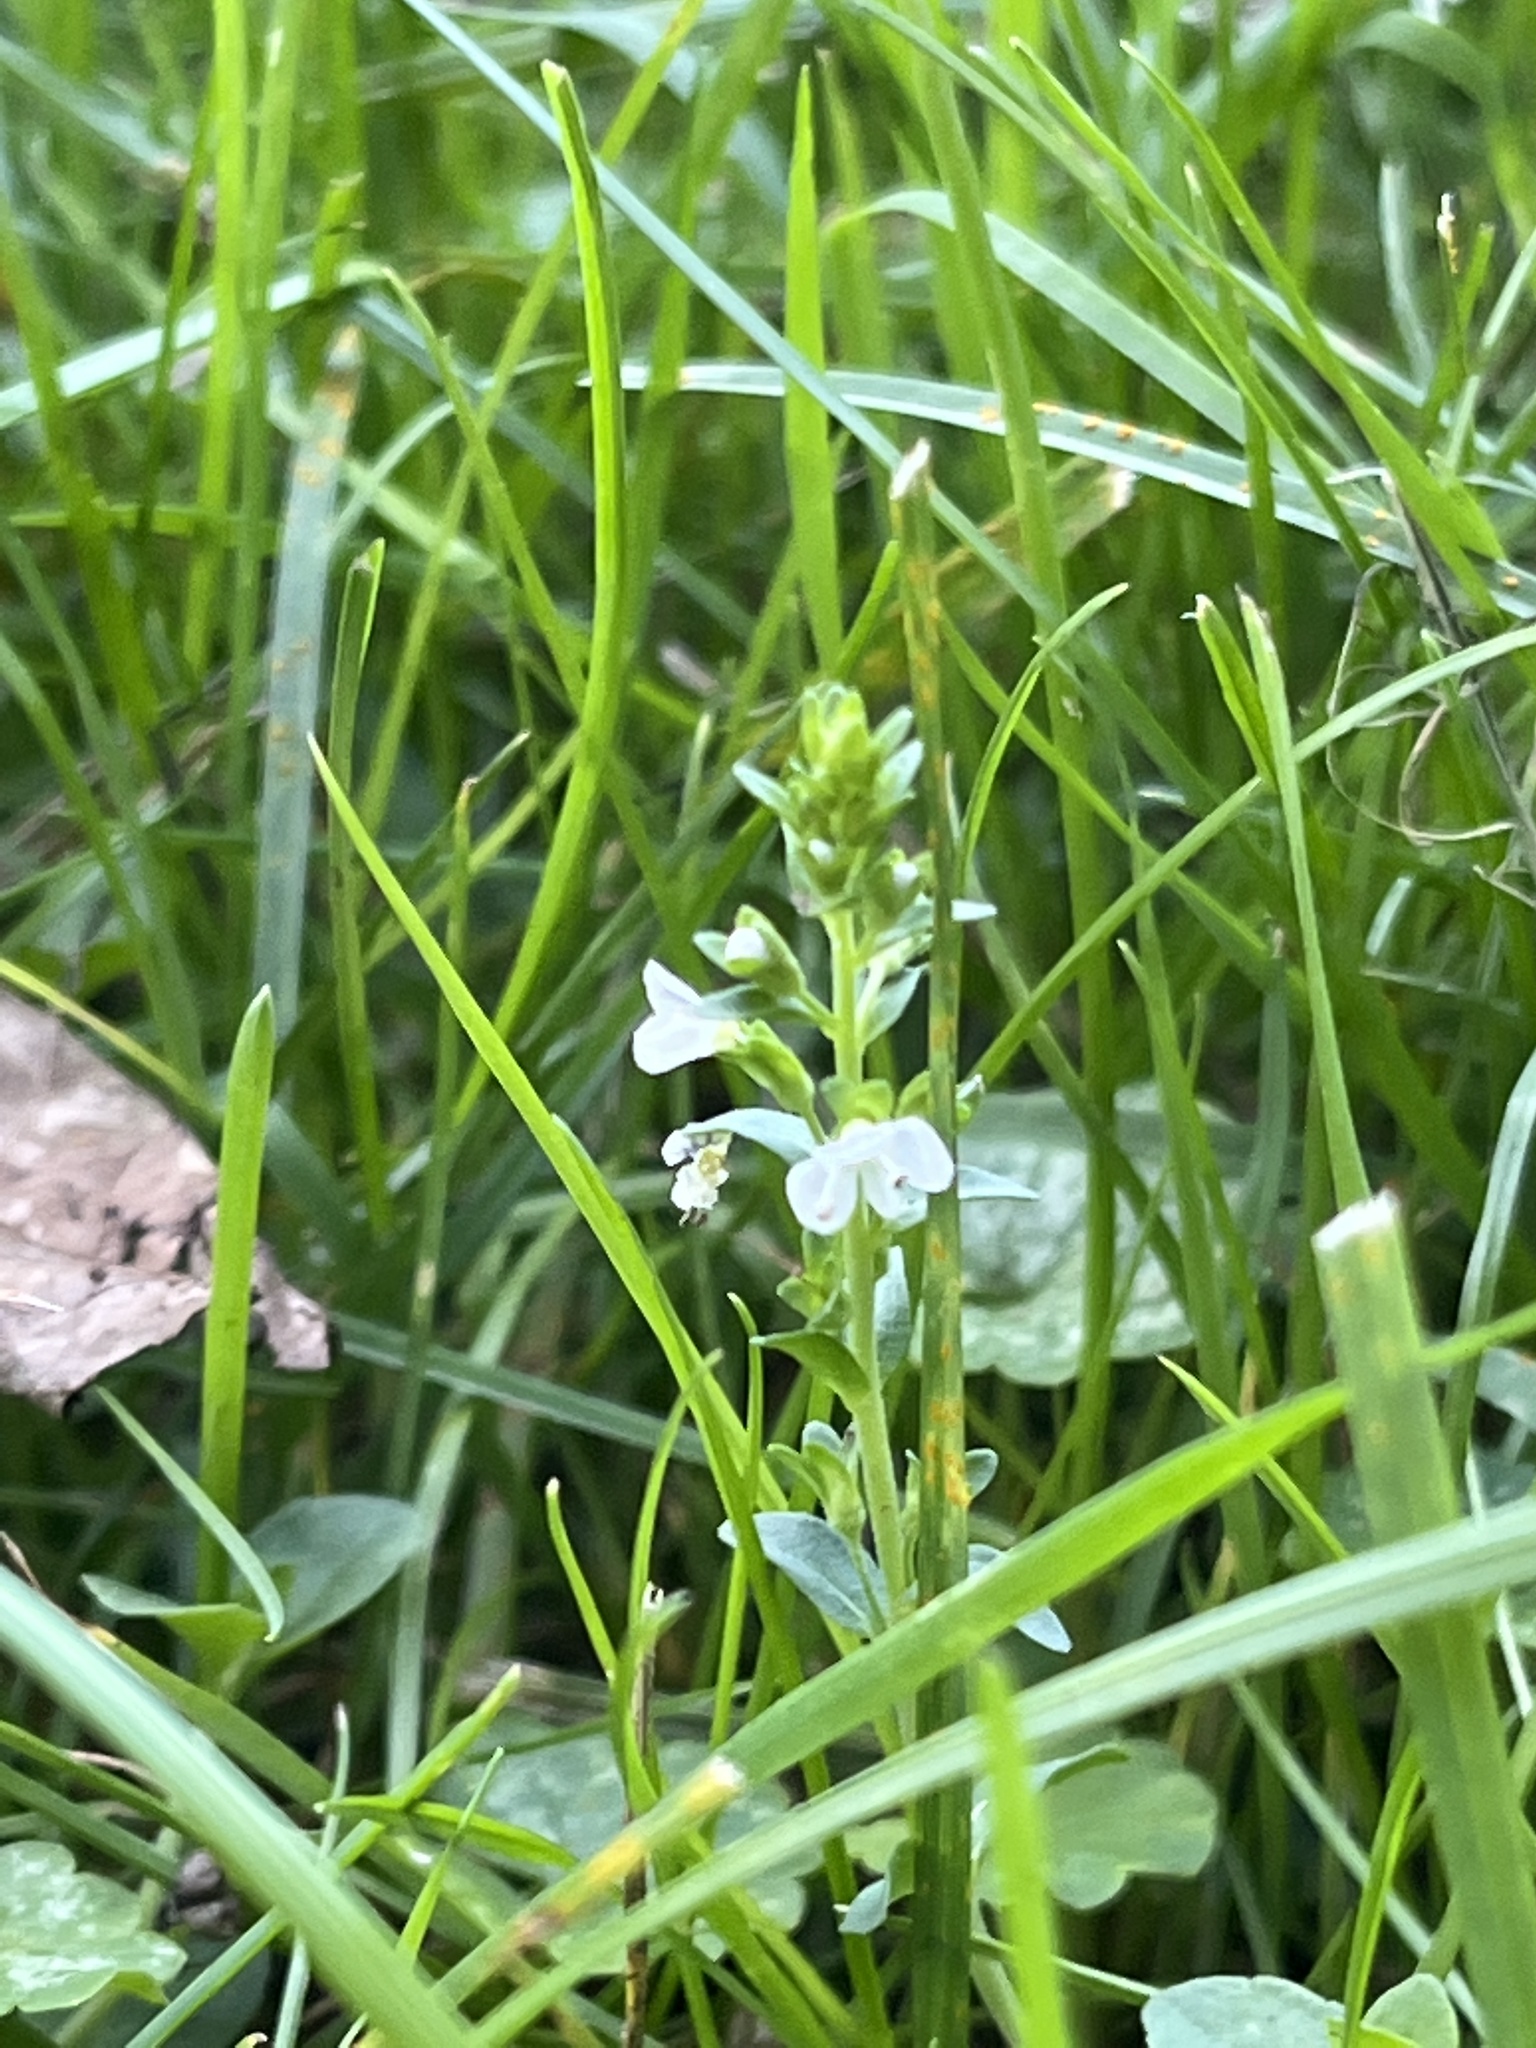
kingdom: Plantae
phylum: Tracheophyta
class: Magnoliopsida
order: Lamiales
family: Plantaginaceae
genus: Veronica
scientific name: Veronica serpyllifolia
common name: Thyme-leaved speedwell
